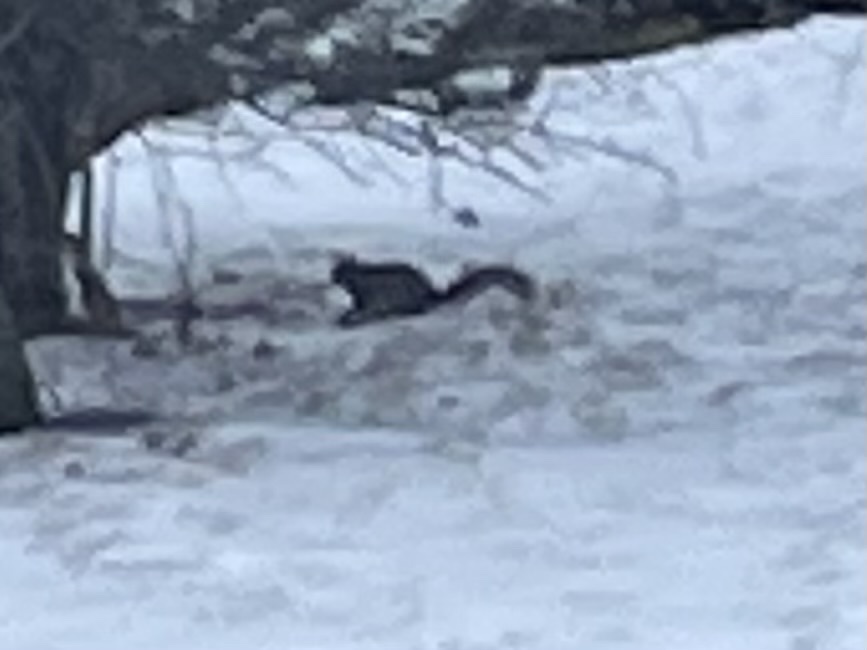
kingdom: Animalia
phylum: Chordata
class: Mammalia
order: Rodentia
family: Sciuridae
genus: Sciurus
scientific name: Sciurus carolinensis
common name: Eastern gray squirrel
